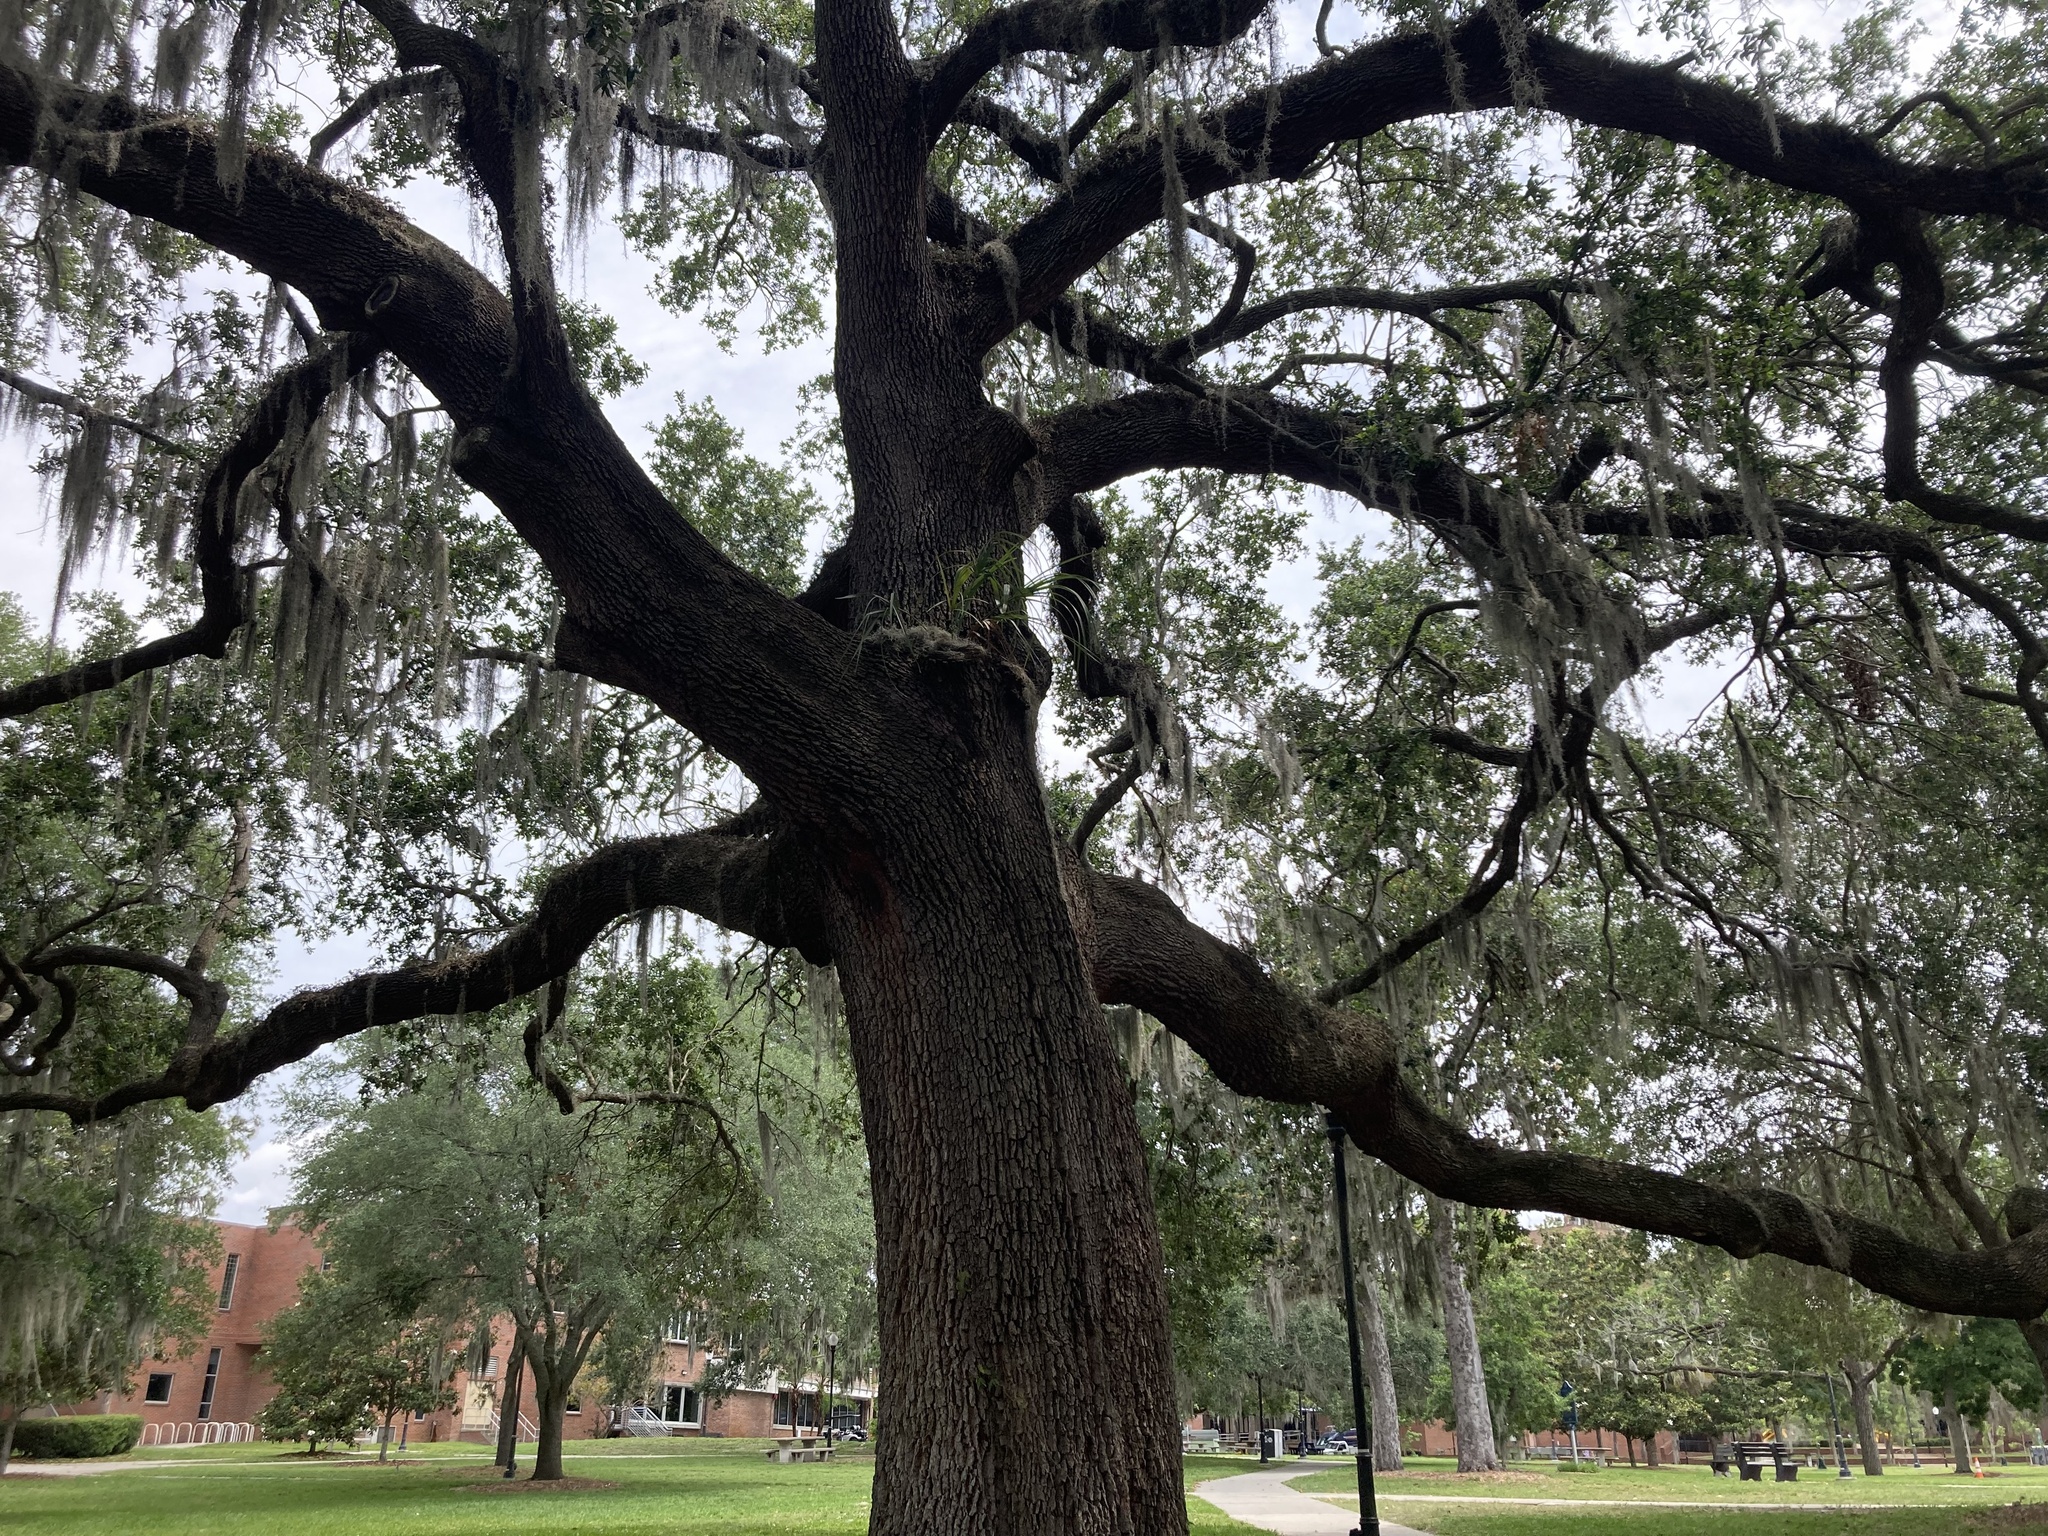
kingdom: Plantae
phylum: Tracheophyta
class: Magnoliopsida
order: Fagales
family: Fagaceae
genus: Quercus
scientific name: Quercus virginiana
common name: Southern live oak
